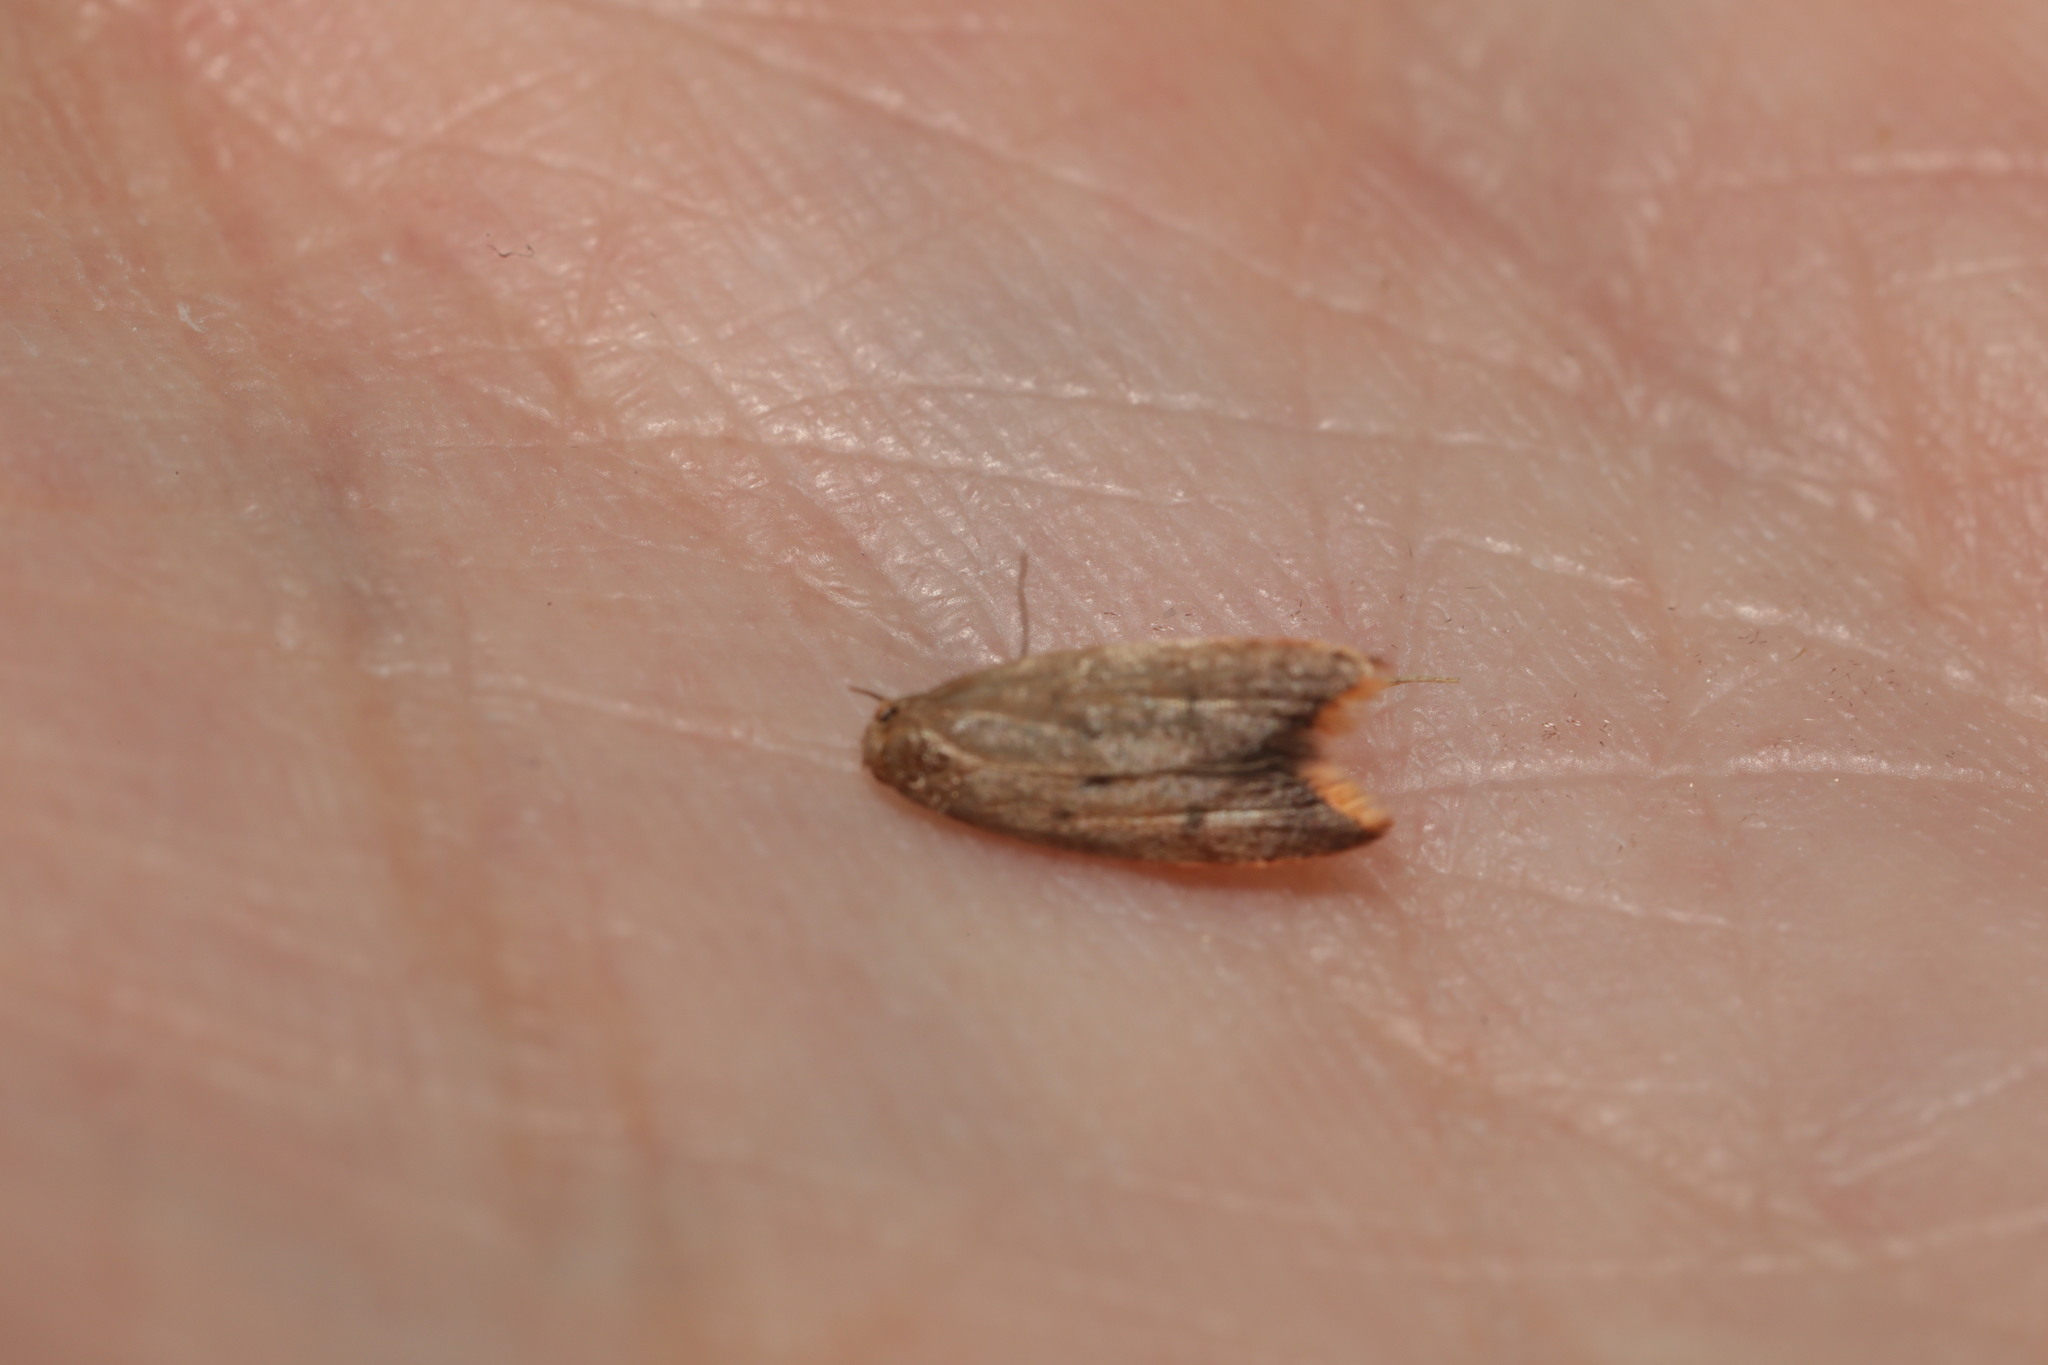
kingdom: Animalia
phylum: Arthropoda
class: Insecta
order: Lepidoptera
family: Oecophoridae
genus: Tachystola
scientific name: Tachystola acroxantha
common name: Ruddy streak
